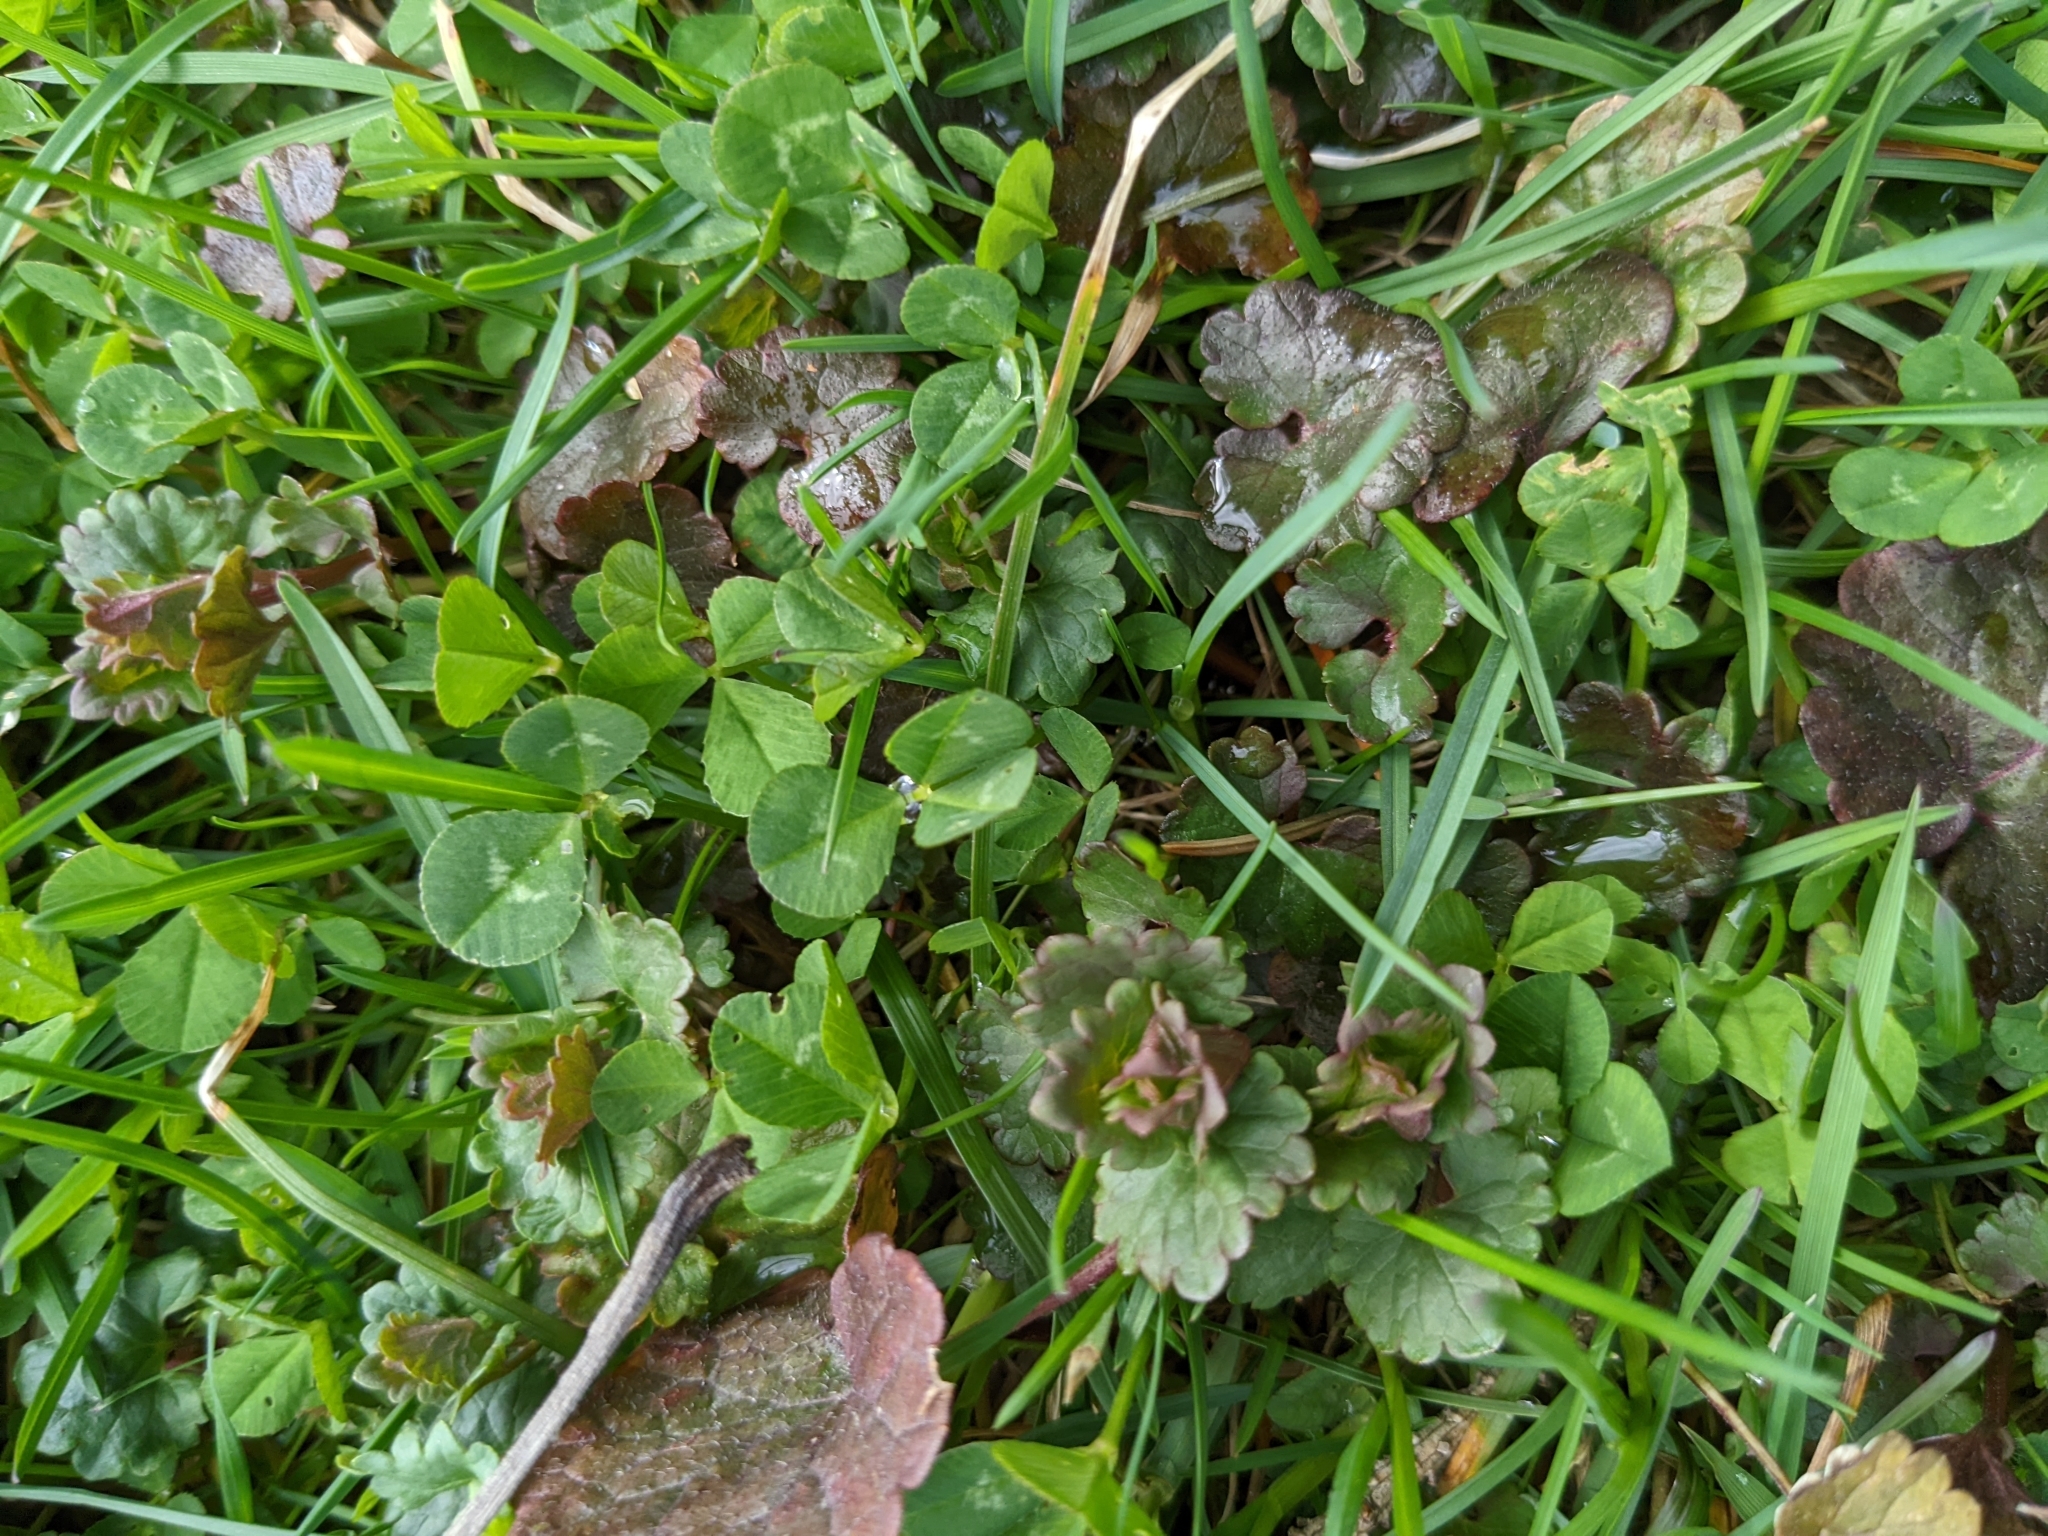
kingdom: Plantae
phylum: Tracheophyta
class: Magnoliopsida
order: Fabales
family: Fabaceae
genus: Trifolium
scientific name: Trifolium repens
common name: White clover
